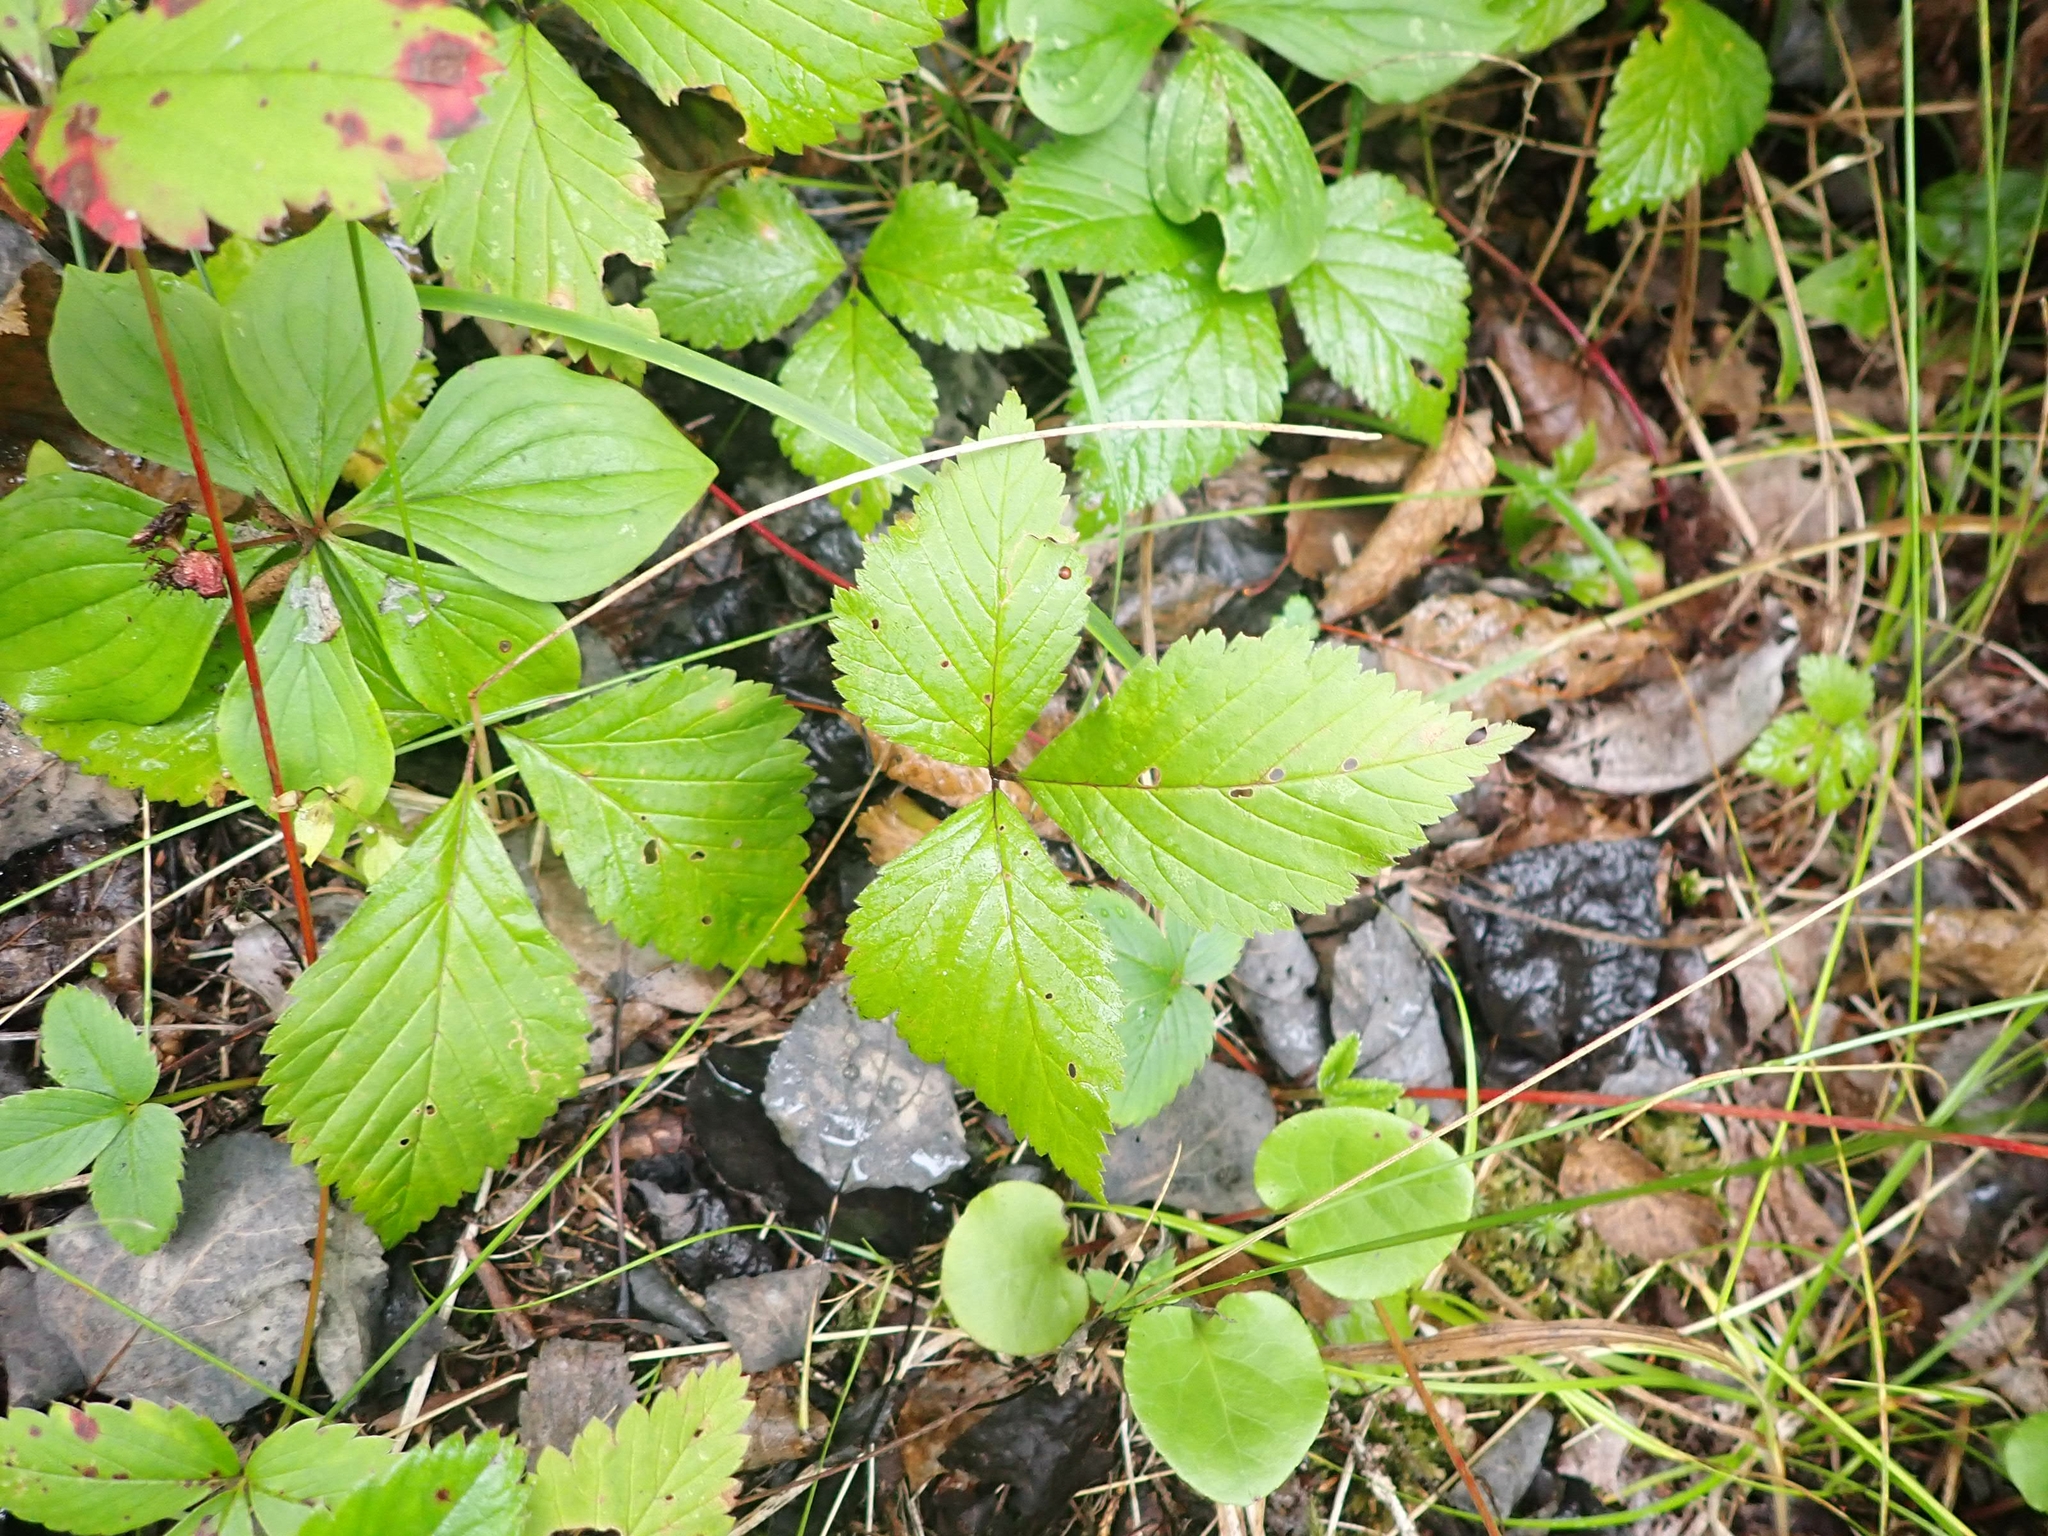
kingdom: Plantae
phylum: Tracheophyta
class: Magnoliopsida
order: Rosales
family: Rosaceae
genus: Rubus
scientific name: Rubus pubescens
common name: Dwarf raspberry
